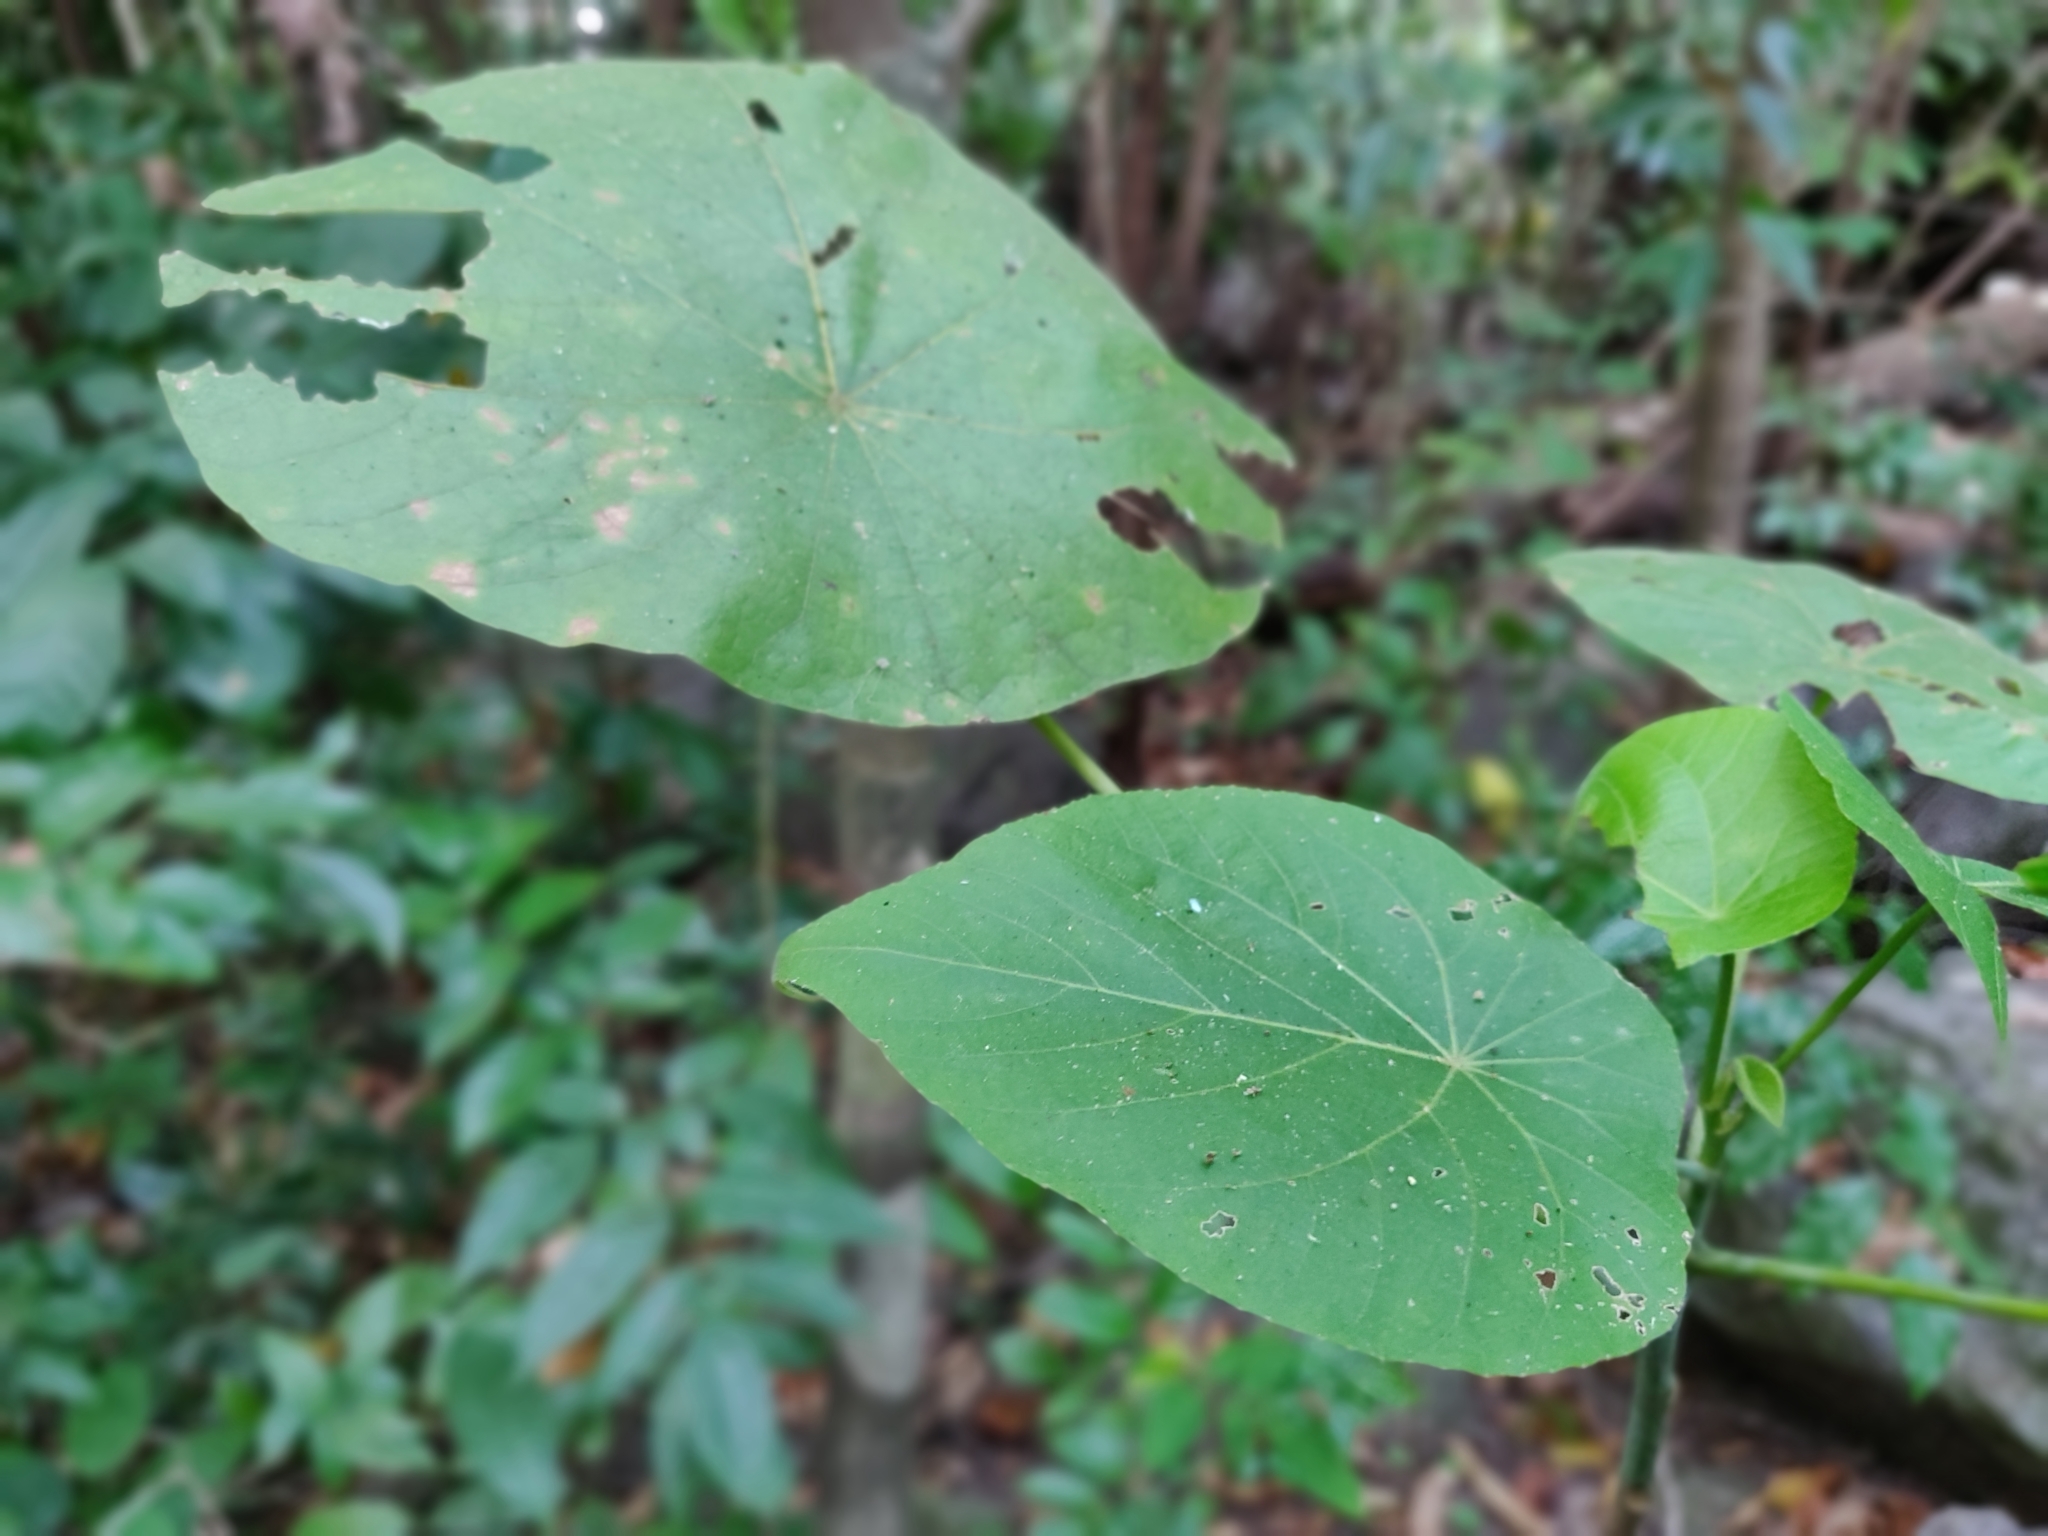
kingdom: Plantae
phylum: Tracheophyta
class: Magnoliopsida
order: Malpighiales
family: Euphorbiaceae
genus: Macaranga
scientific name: Macaranga tanarius
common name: Parasol leaf tree
